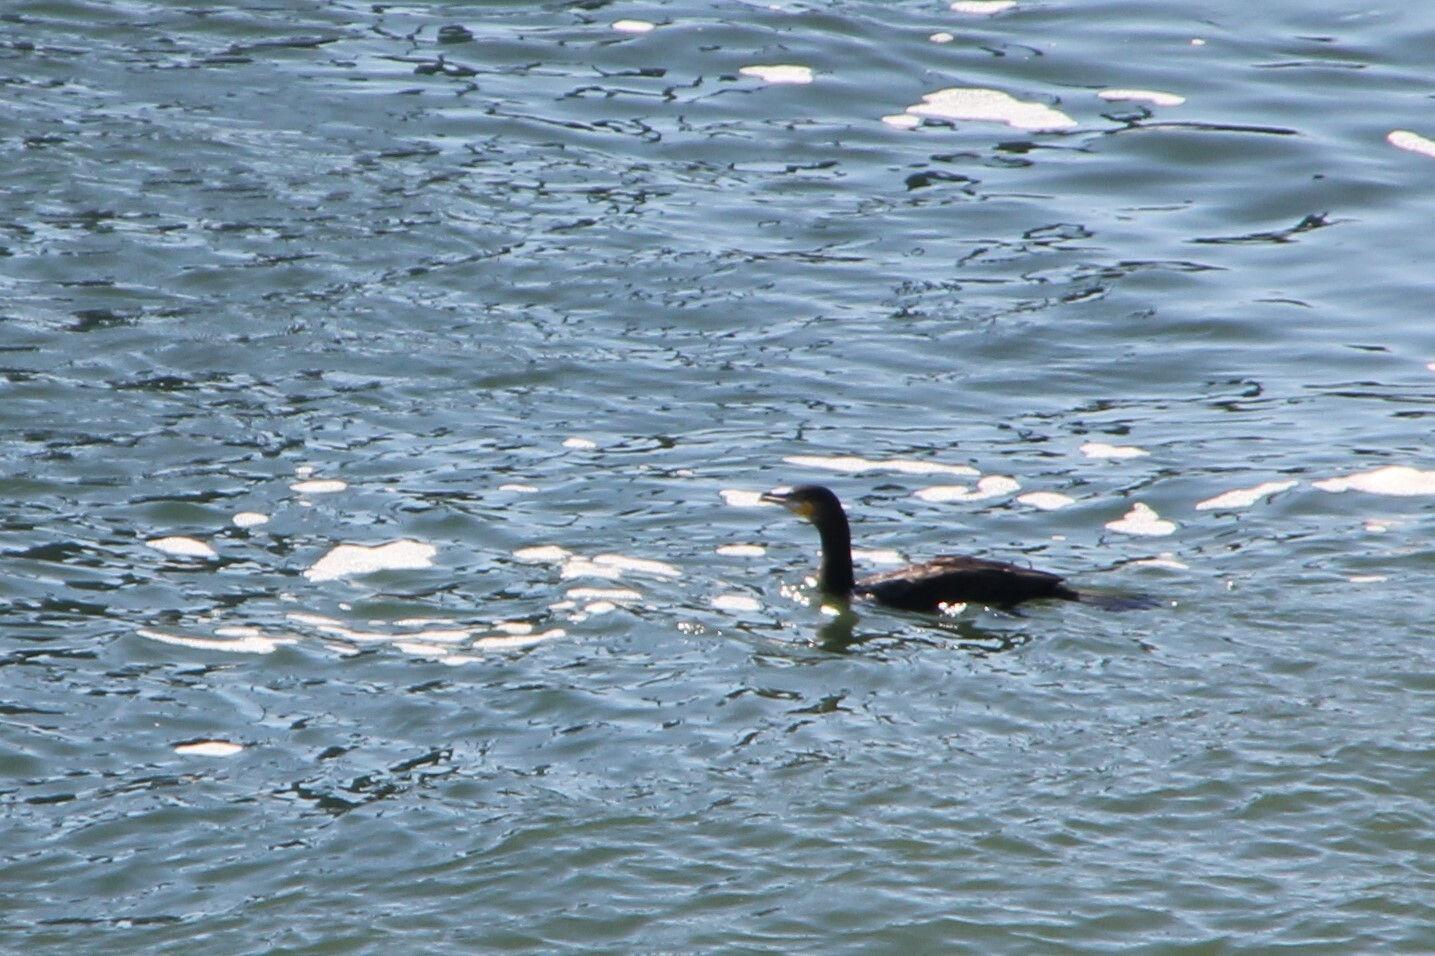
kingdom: Animalia
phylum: Chordata
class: Aves
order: Suliformes
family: Phalacrocoracidae
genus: Phalacrocorax
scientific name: Phalacrocorax carbo
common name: Great cormorant
